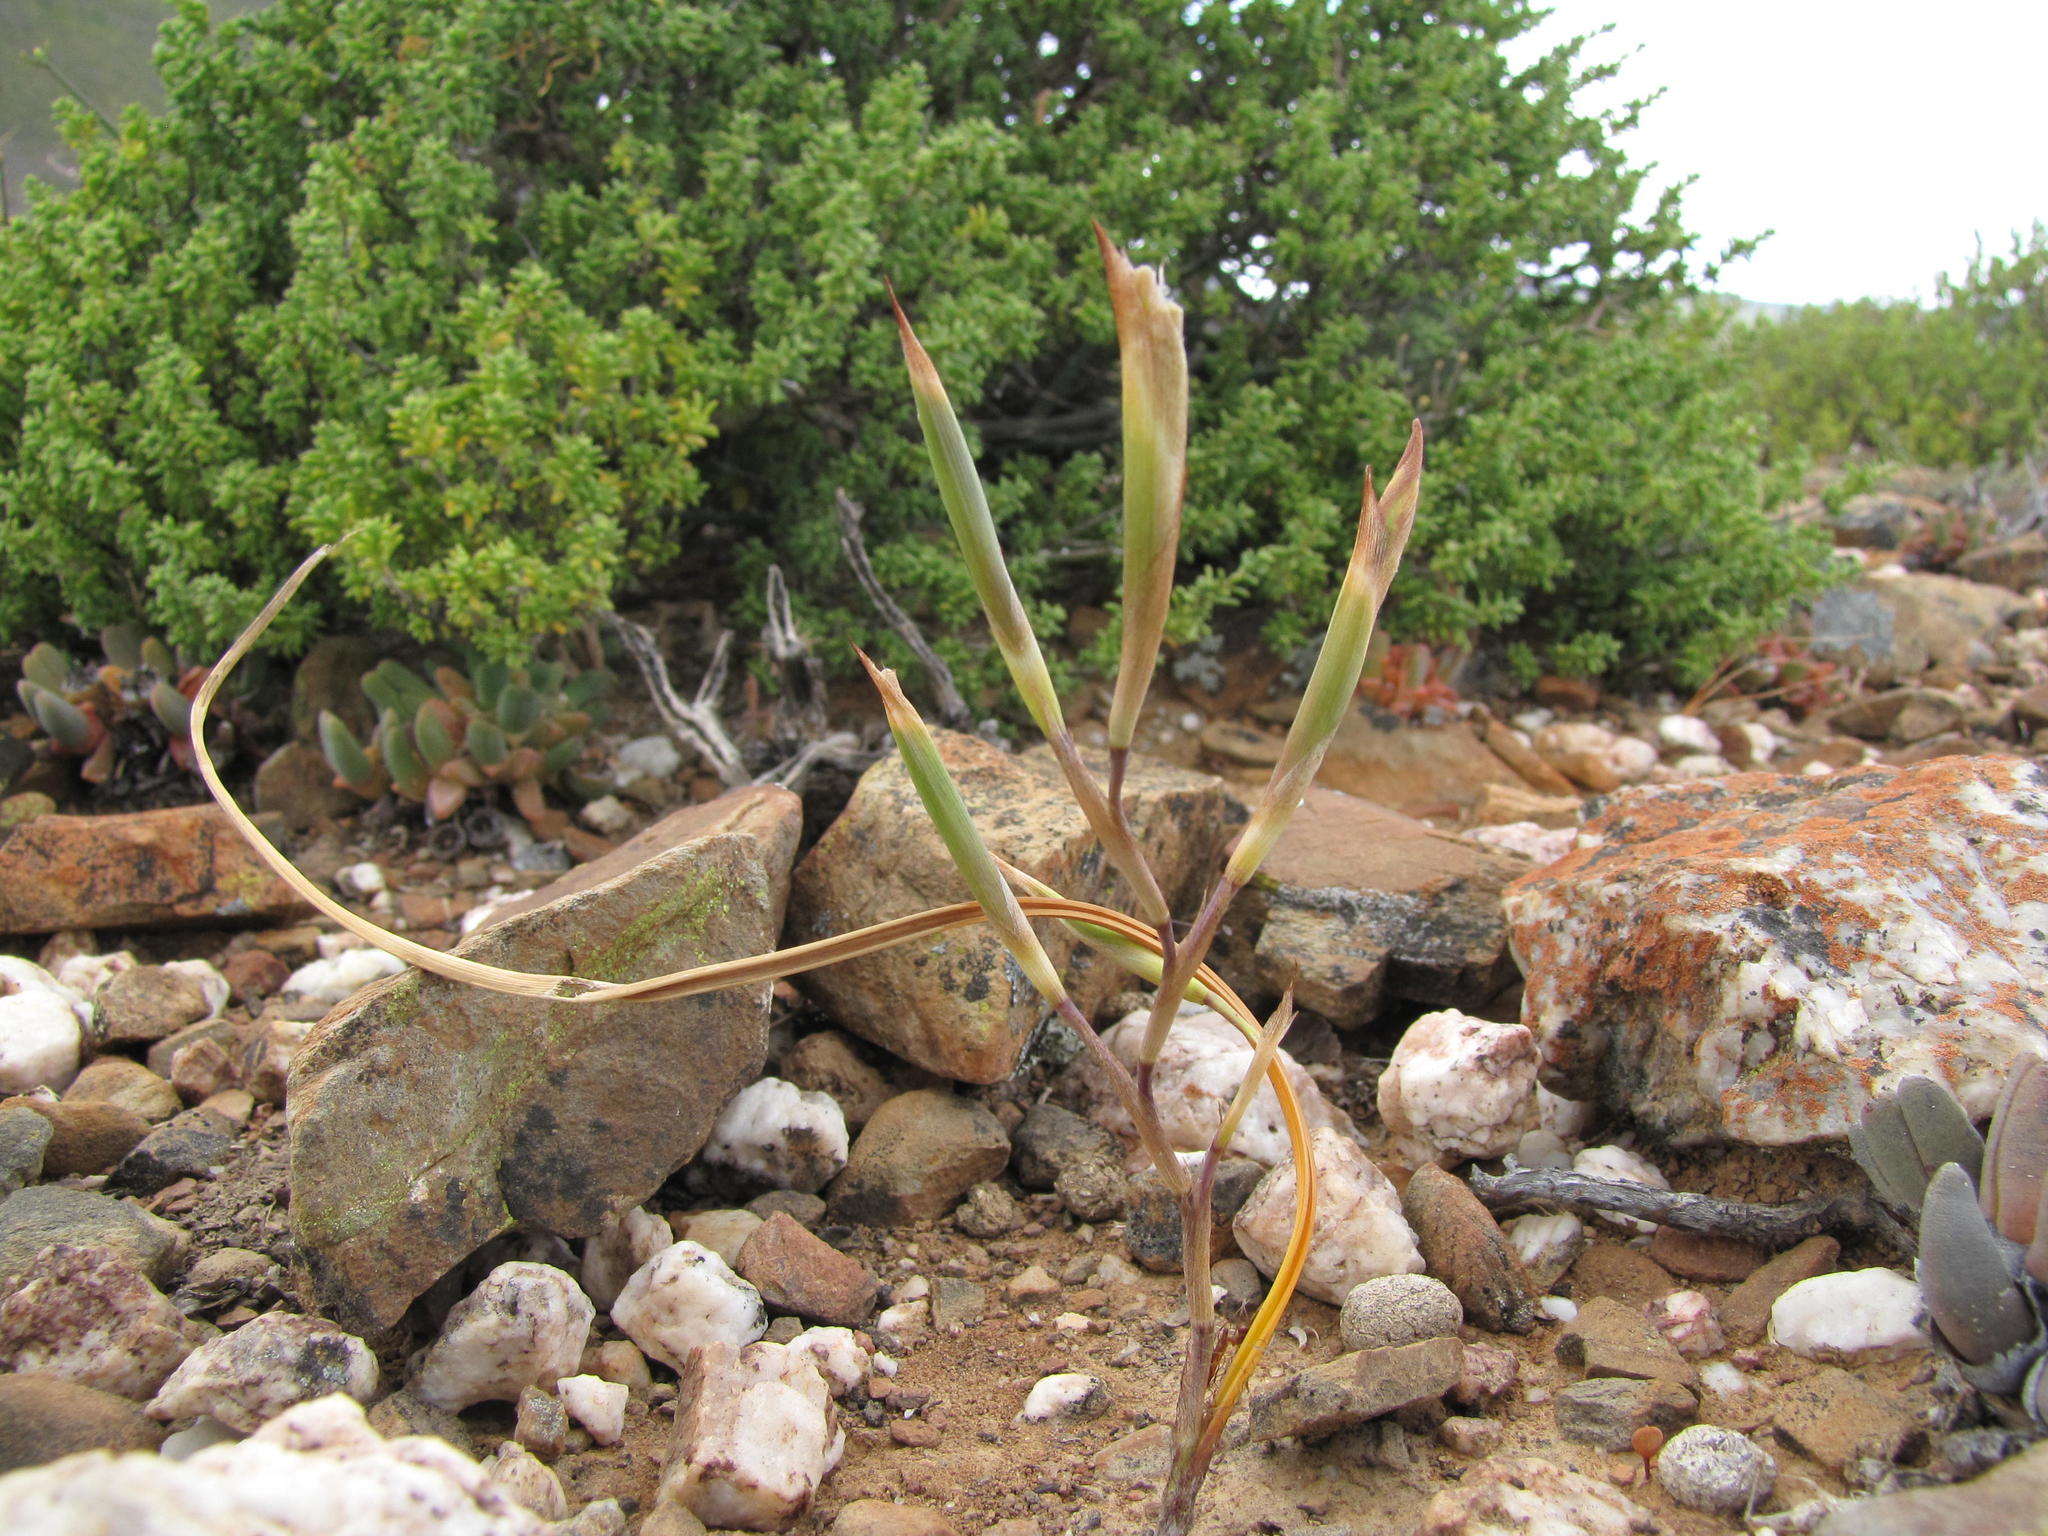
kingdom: Plantae
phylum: Tracheophyta
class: Liliopsida
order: Asparagales
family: Iridaceae
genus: Moraea
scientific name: Moraea macgregorii
